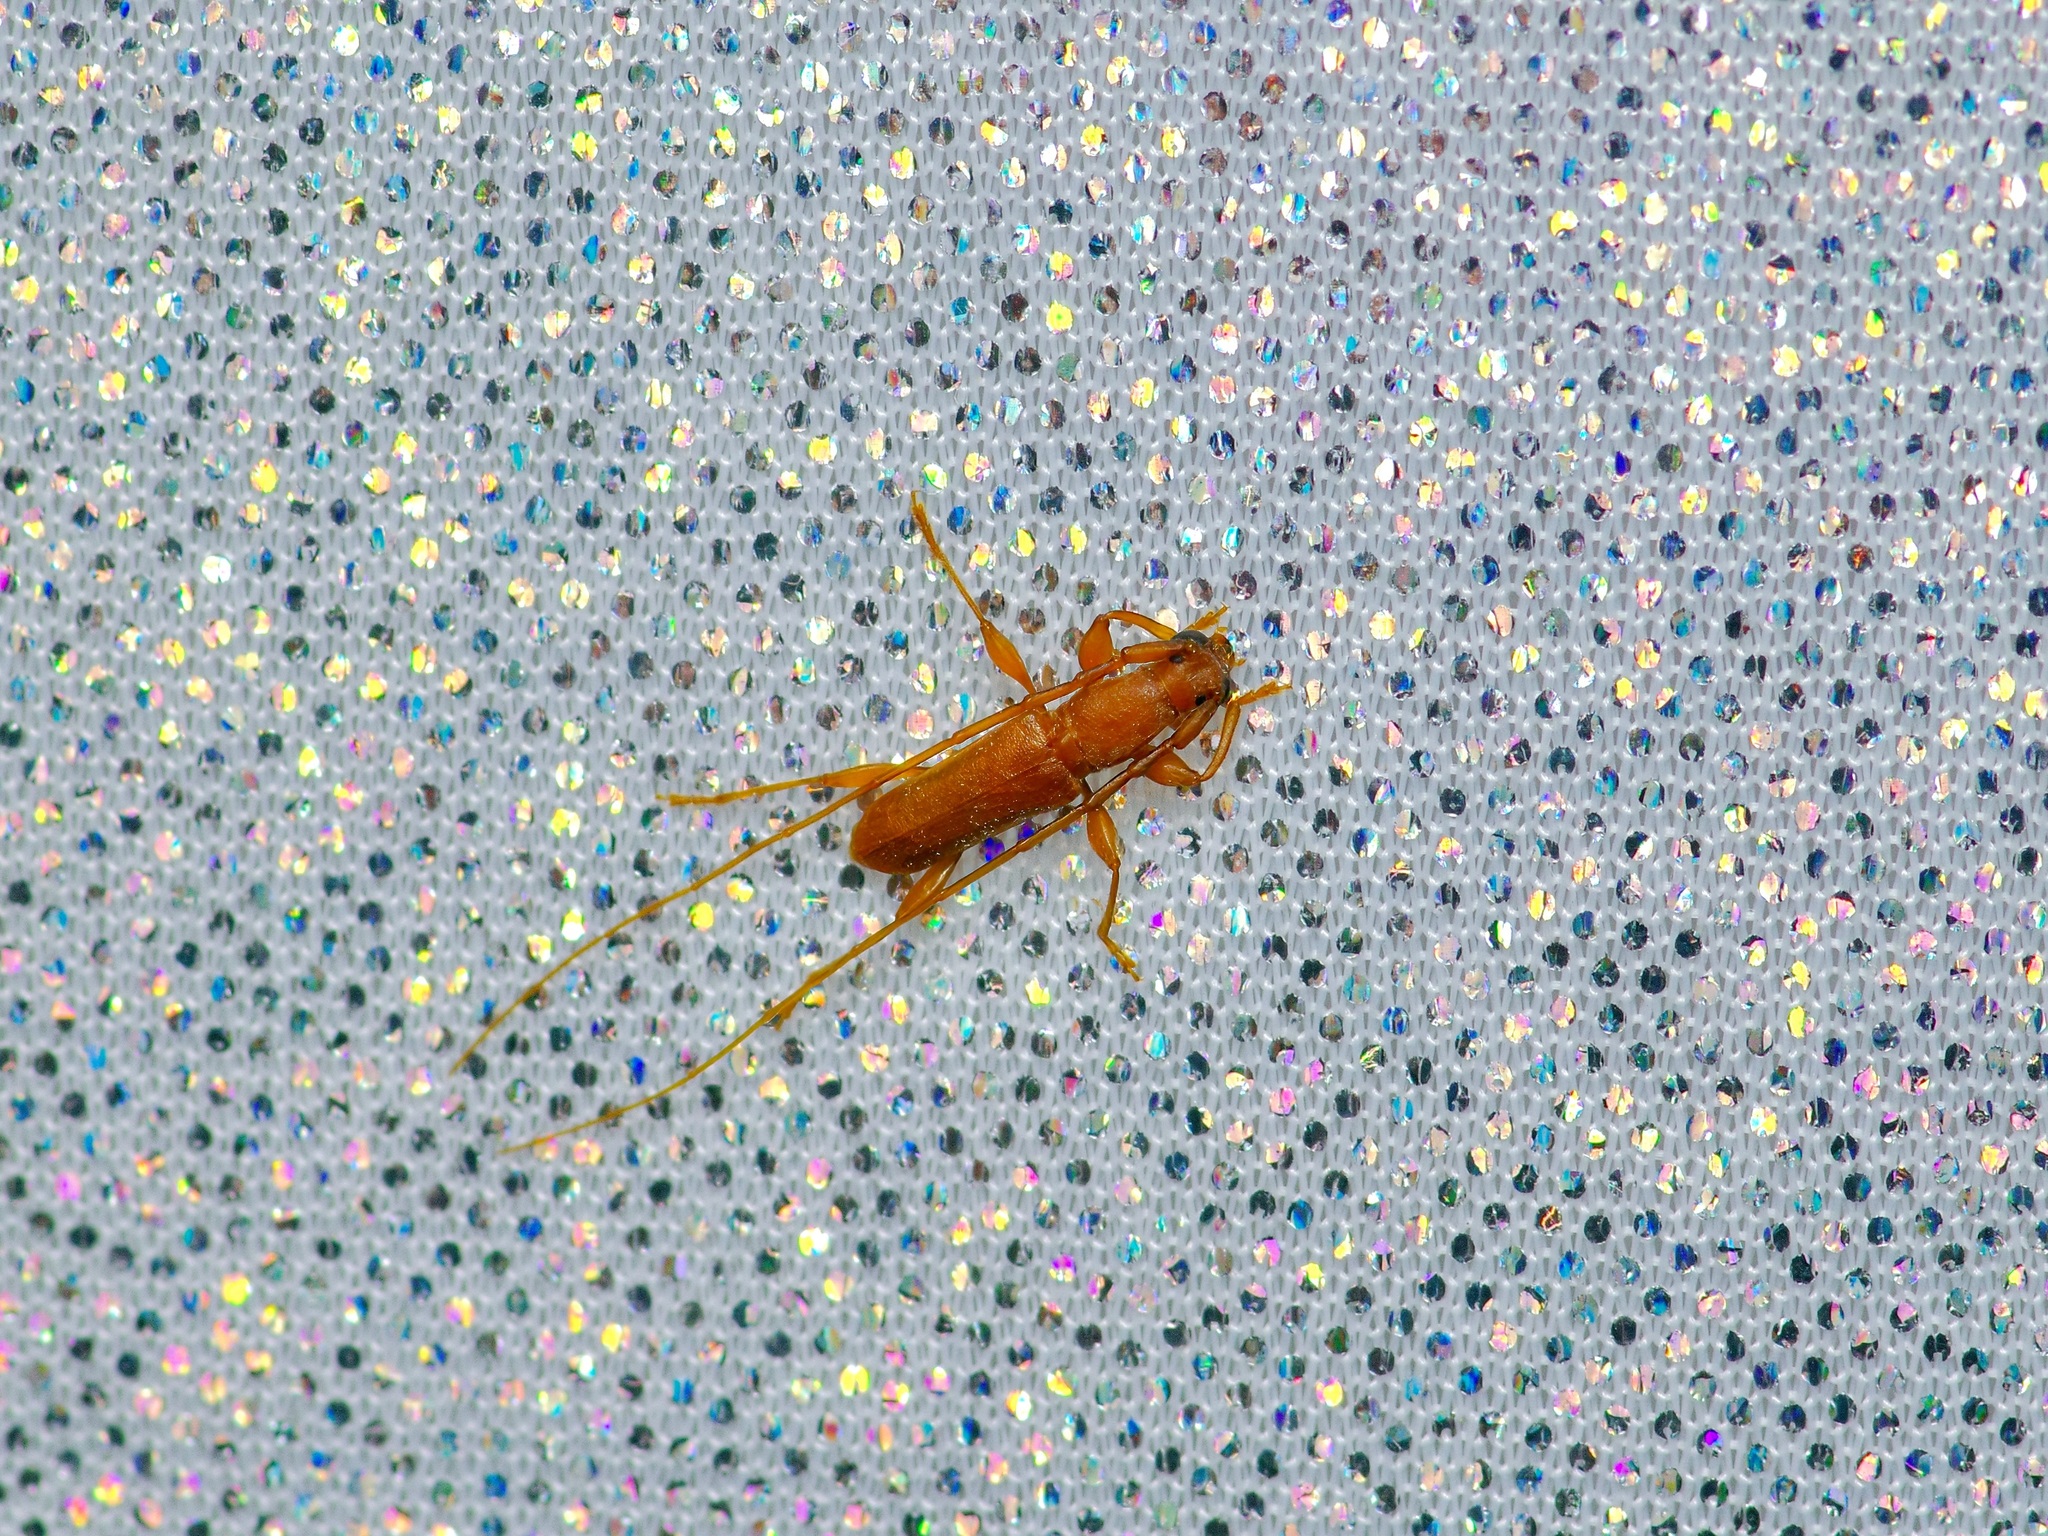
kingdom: Animalia
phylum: Arthropoda
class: Insecta
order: Coleoptera
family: Cerambycidae
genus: Hypexilis
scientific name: Hypexilis pallida
